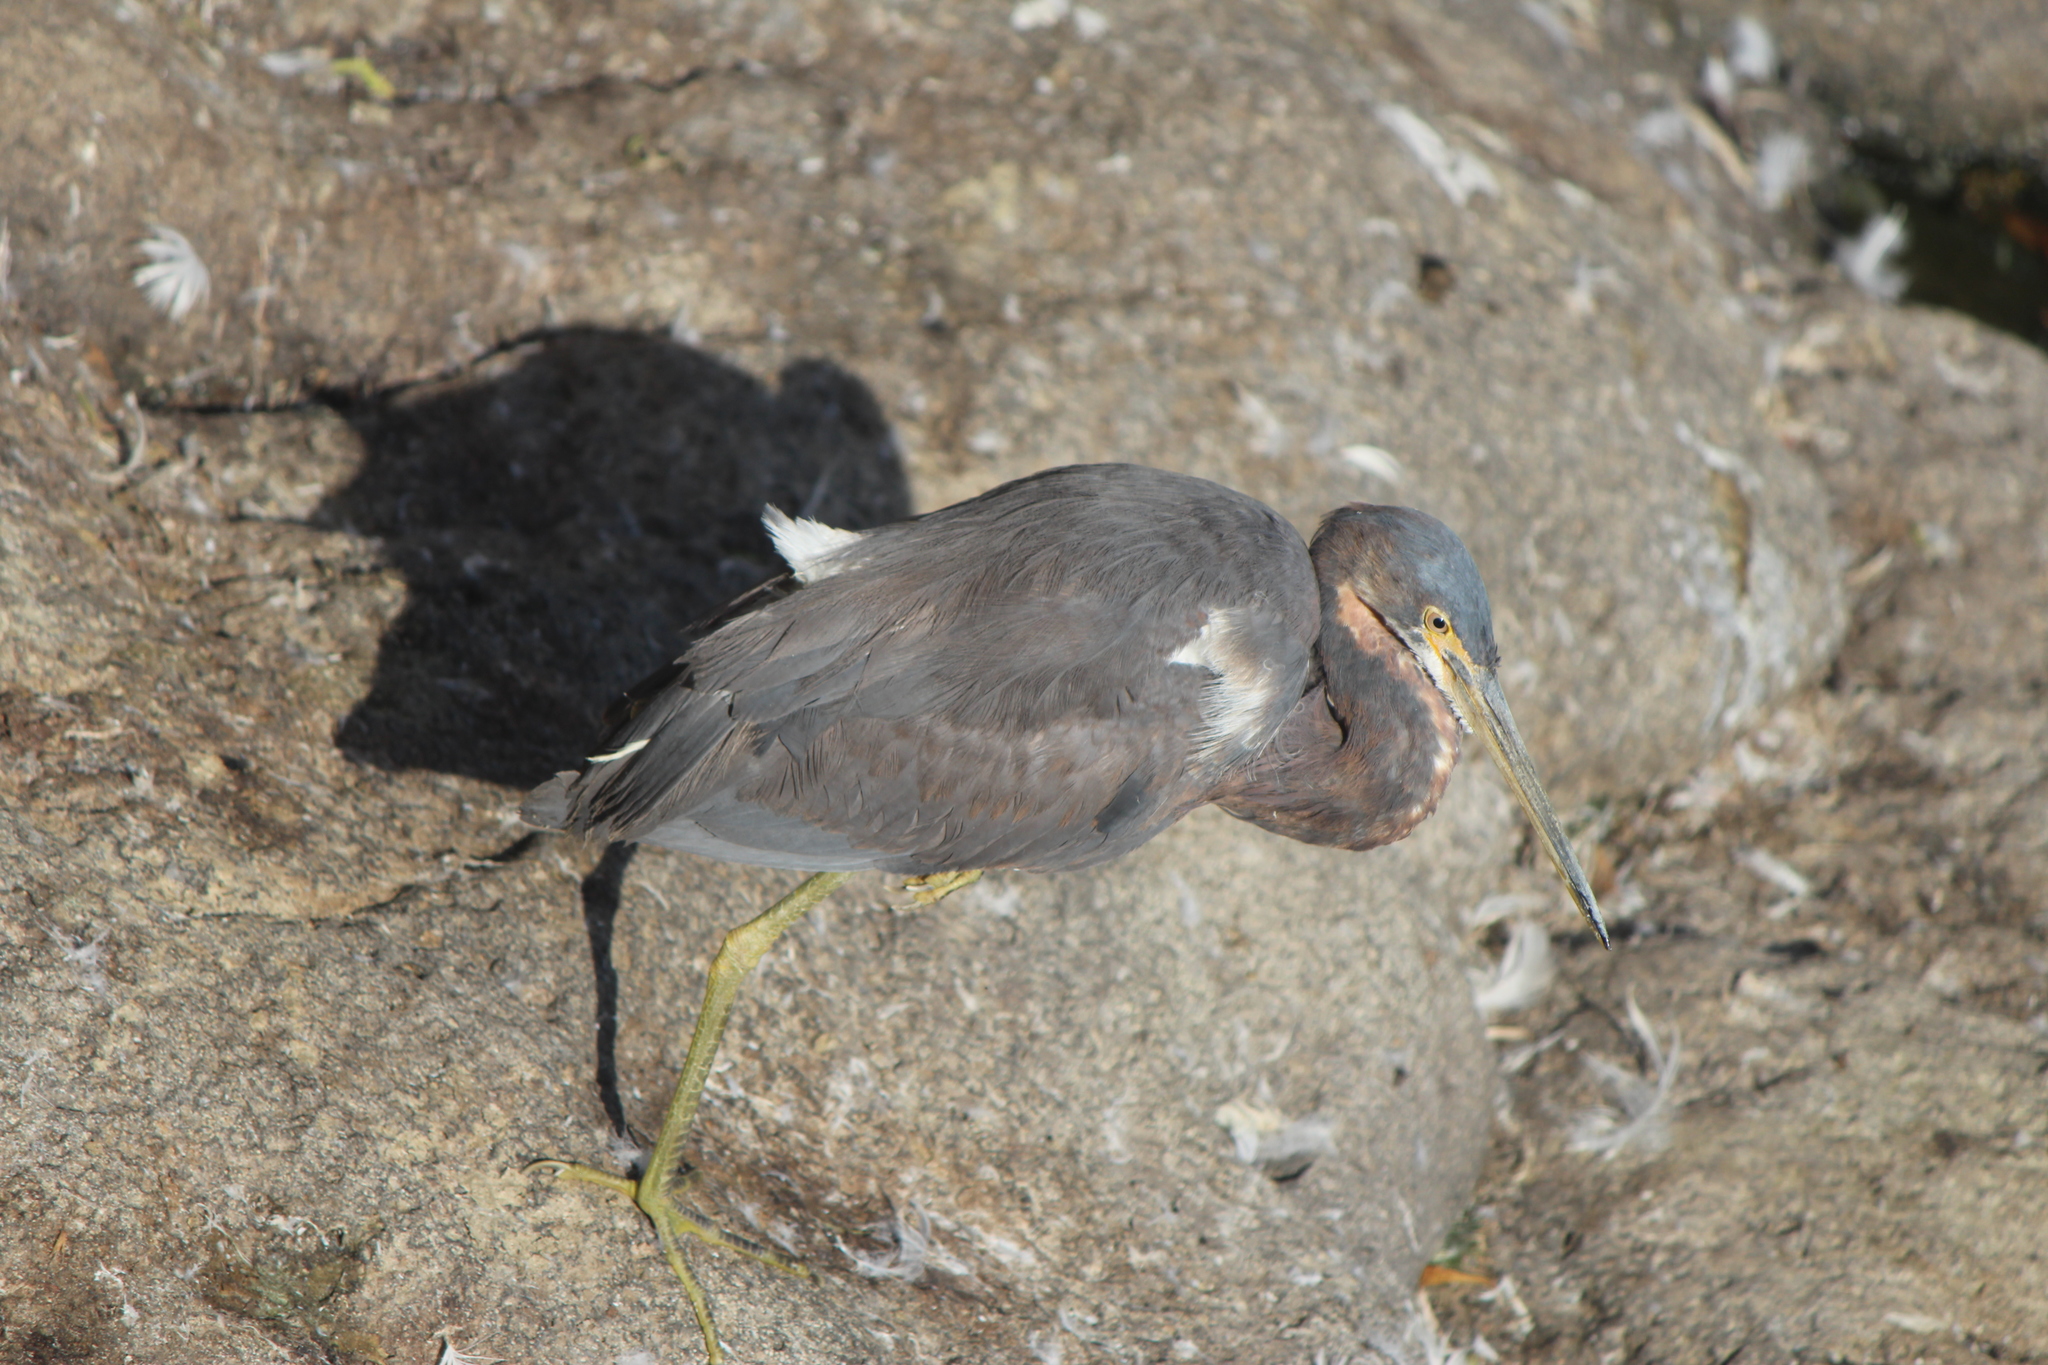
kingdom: Animalia
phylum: Chordata
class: Aves
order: Pelecaniformes
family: Ardeidae
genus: Egretta
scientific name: Egretta tricolor
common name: Tricolored heron
